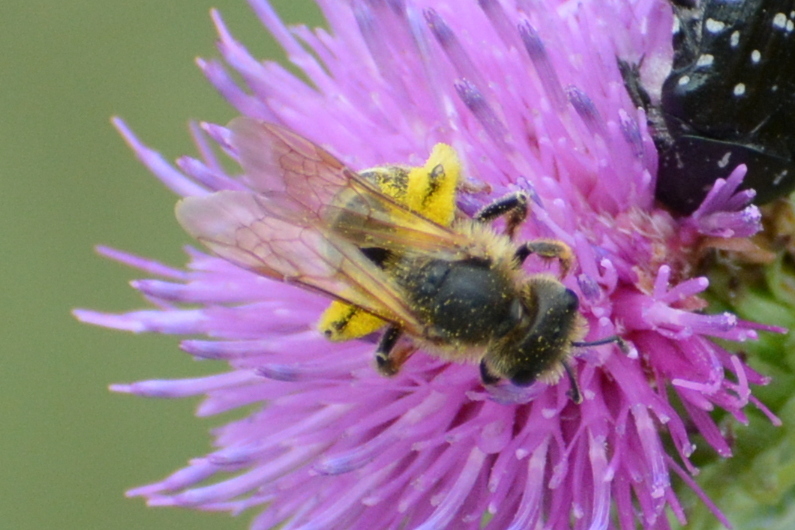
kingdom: Animalia
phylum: Arthropoda
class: Insecta
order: Hymenoptera
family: Halictidae
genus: Halictus
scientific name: Halictus scabiosae
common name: Great banded furrow bee
